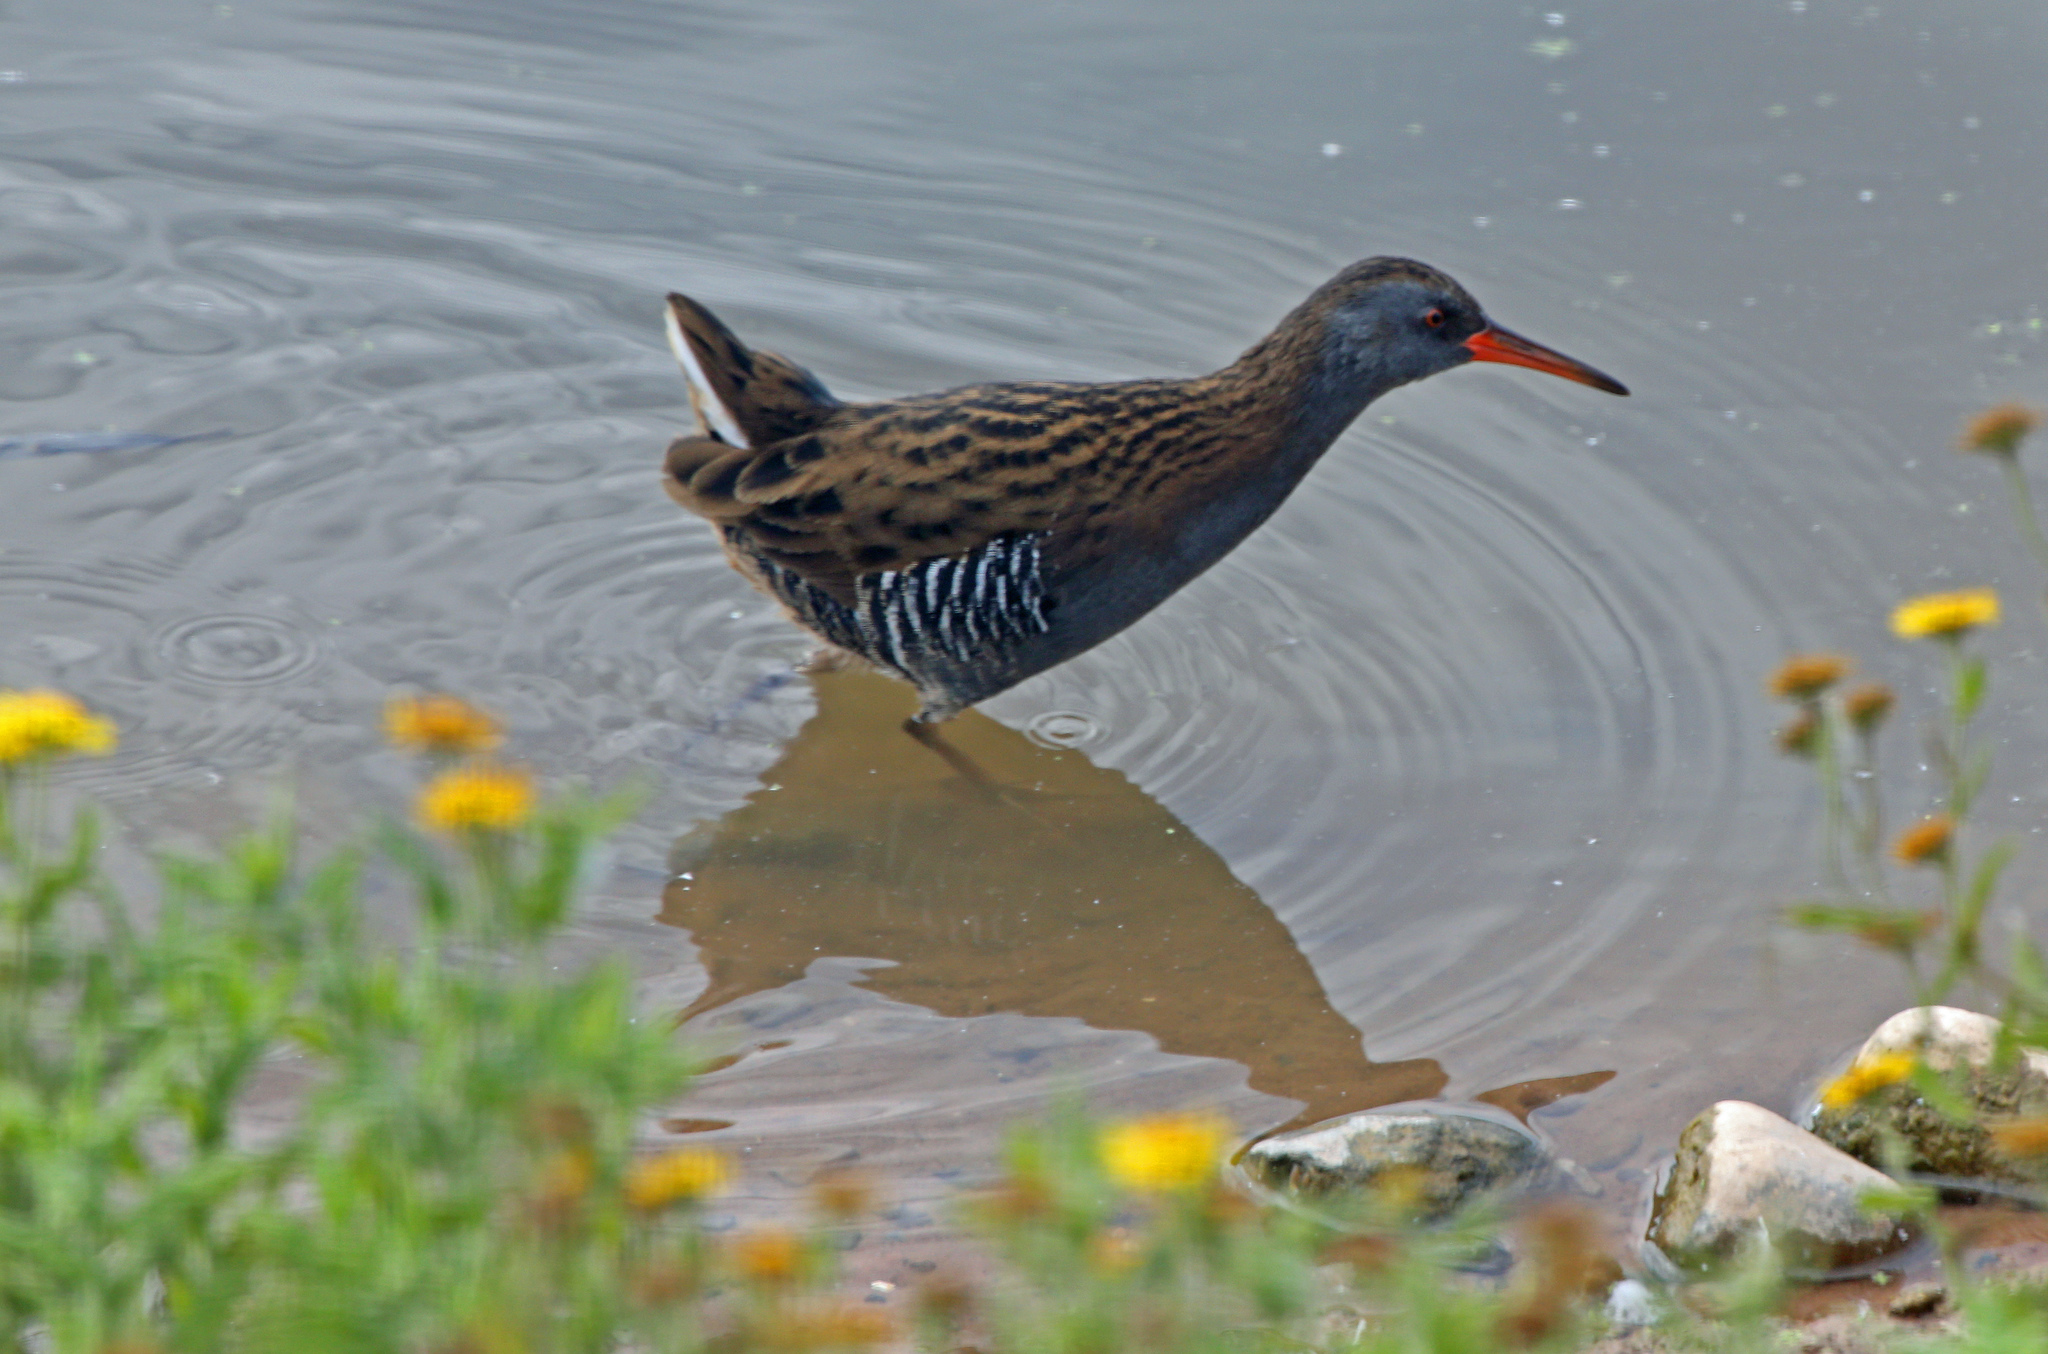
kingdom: Animalia
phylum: Chordata
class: Aves
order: Gruiformes
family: Rallidae
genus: Rallus
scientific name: Rallus aquaticus
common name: Water rail
